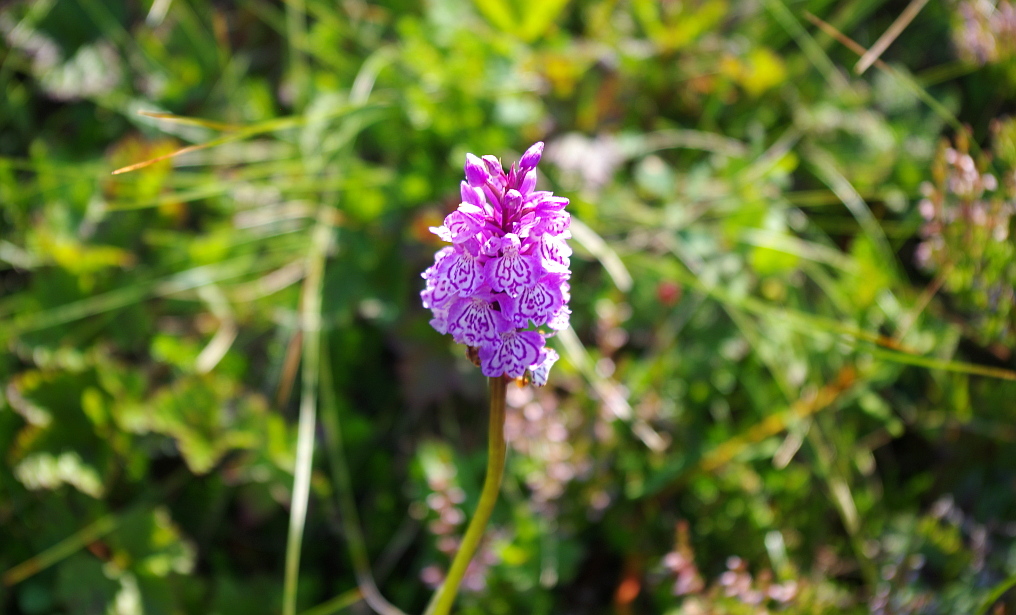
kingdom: Plantae
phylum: Tracheophyta
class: Liliopsida
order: Asparagales
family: Orchidaceae
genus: Dactylorhiza
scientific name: Dactylorhiza maculata
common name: Heath spotted-orchid
